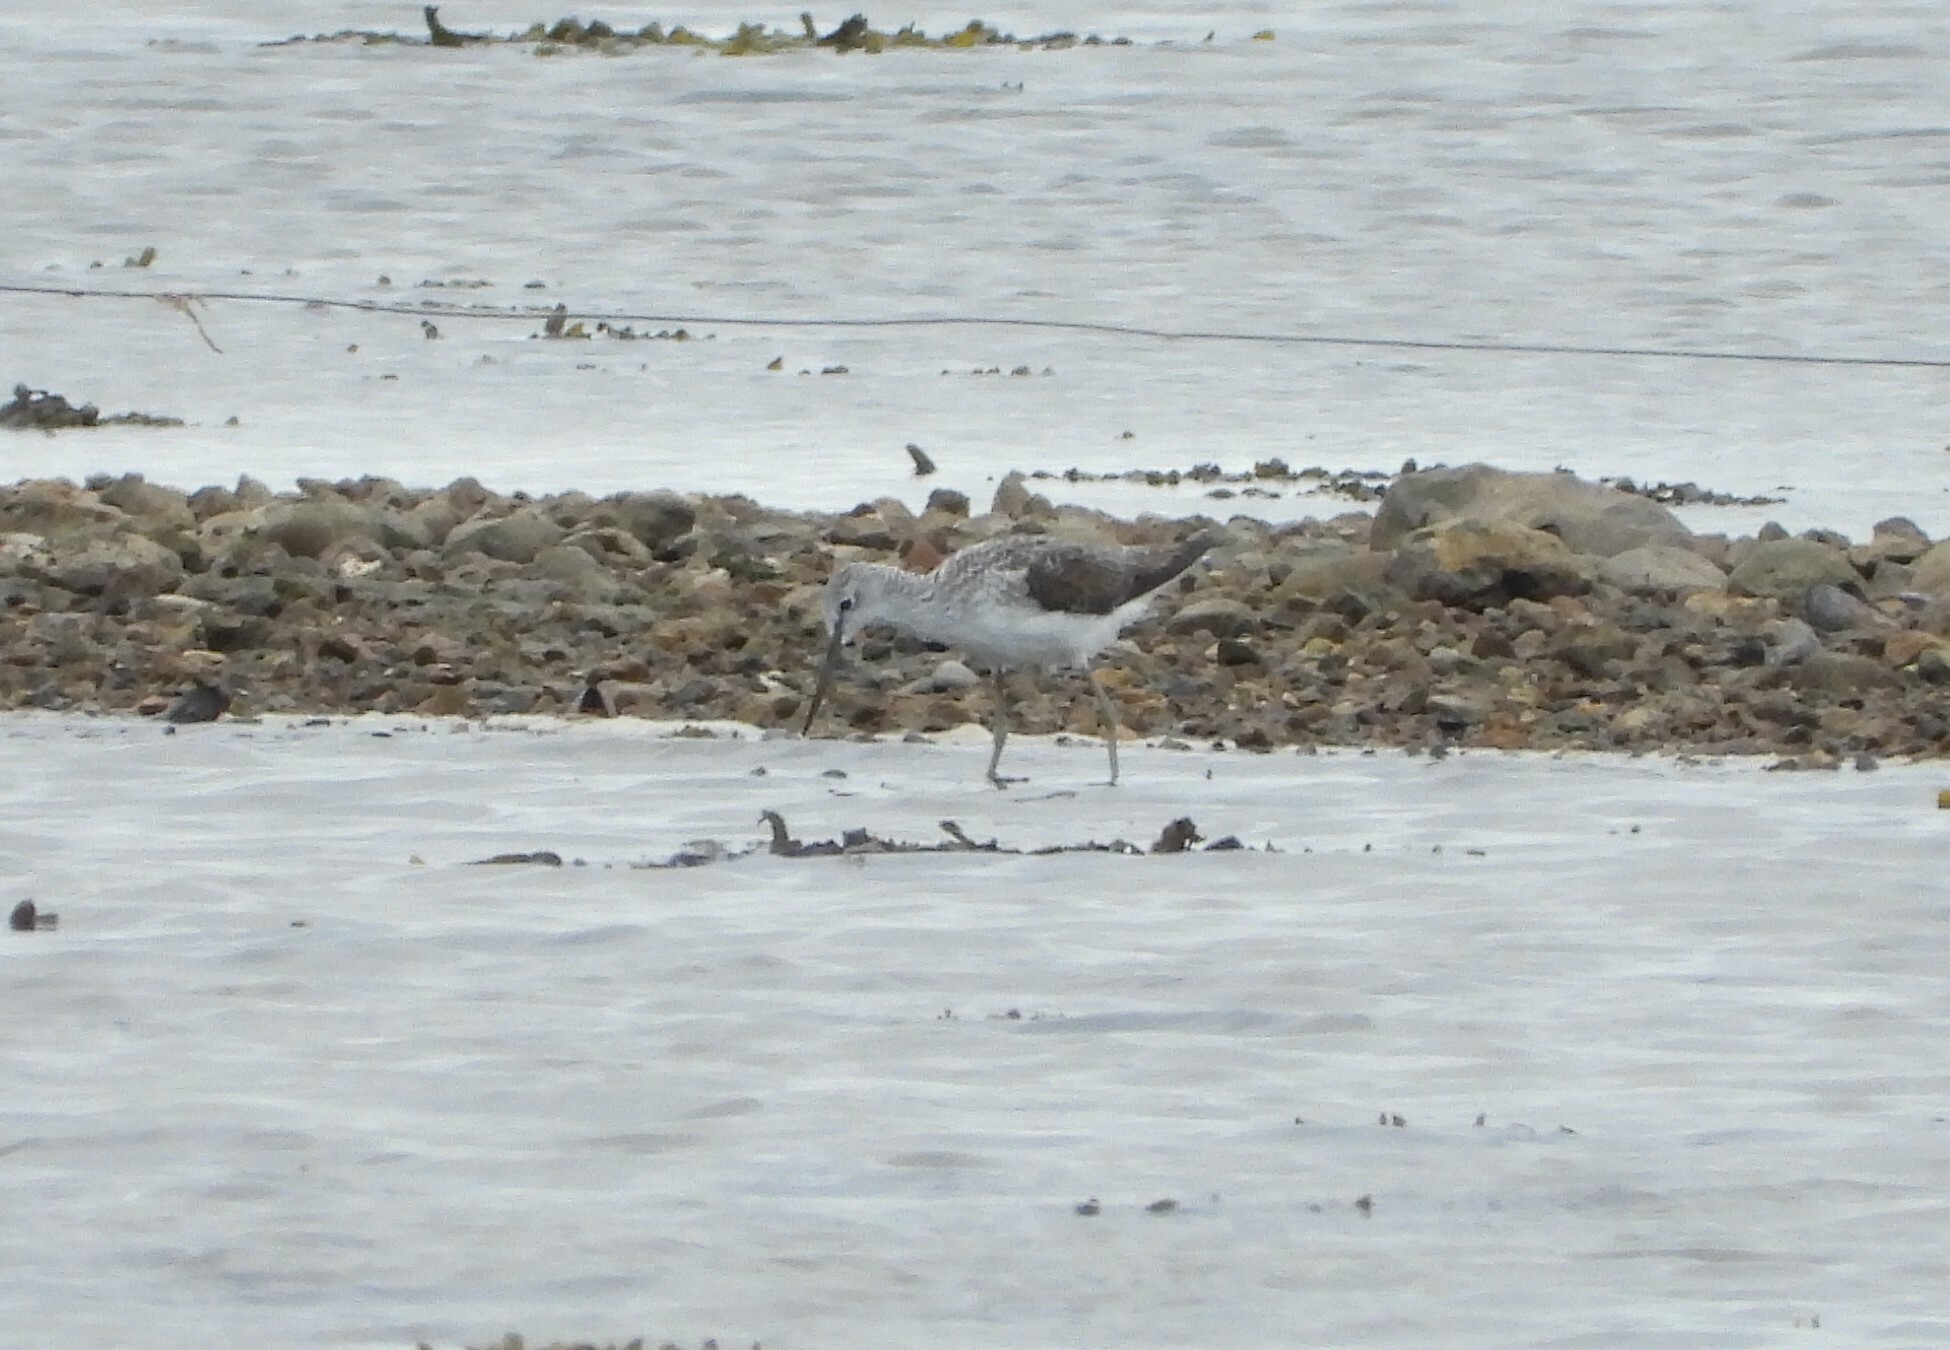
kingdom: Animalia
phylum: Chordata
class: Aves
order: Charadriiformes
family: Scolopacidae
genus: Tringa
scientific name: Tringa nebularia
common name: Common greenshank
